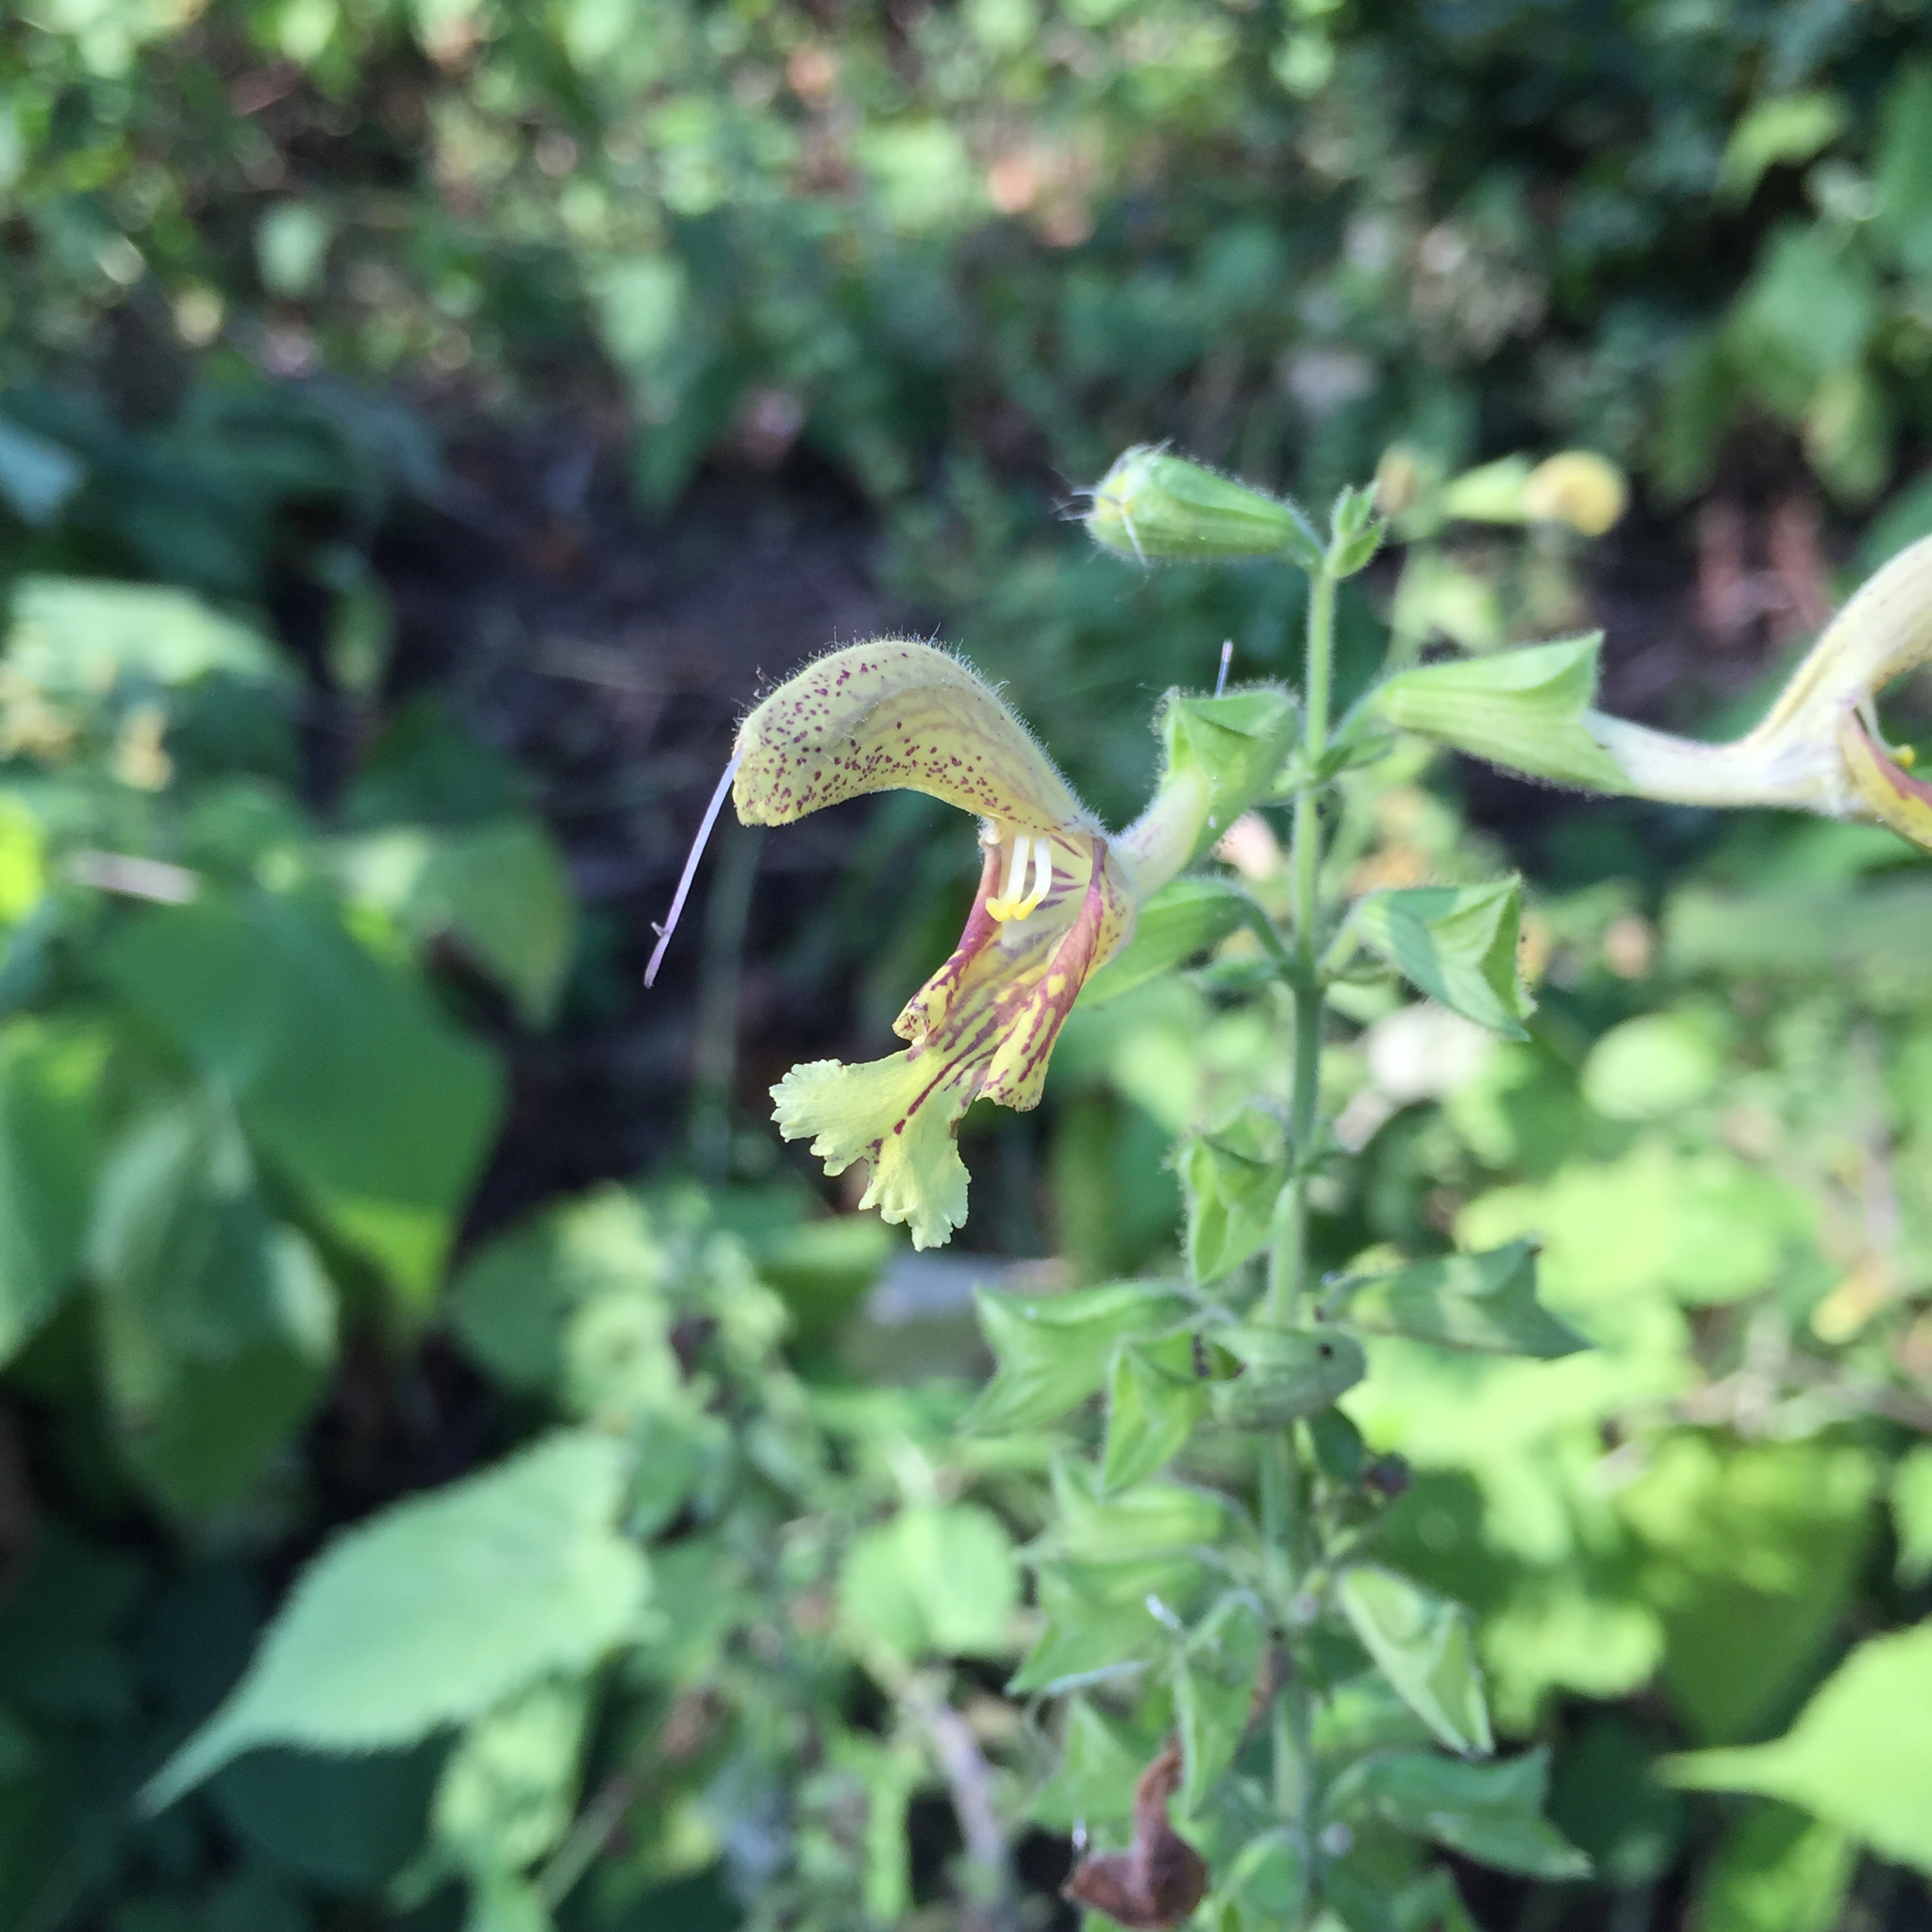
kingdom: Plantae
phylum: Tracheophyta
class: Magnoliopsida
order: Lamiales
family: Lamiaceae
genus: Salvia
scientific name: Salvia glutinosa
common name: Sticky clary
